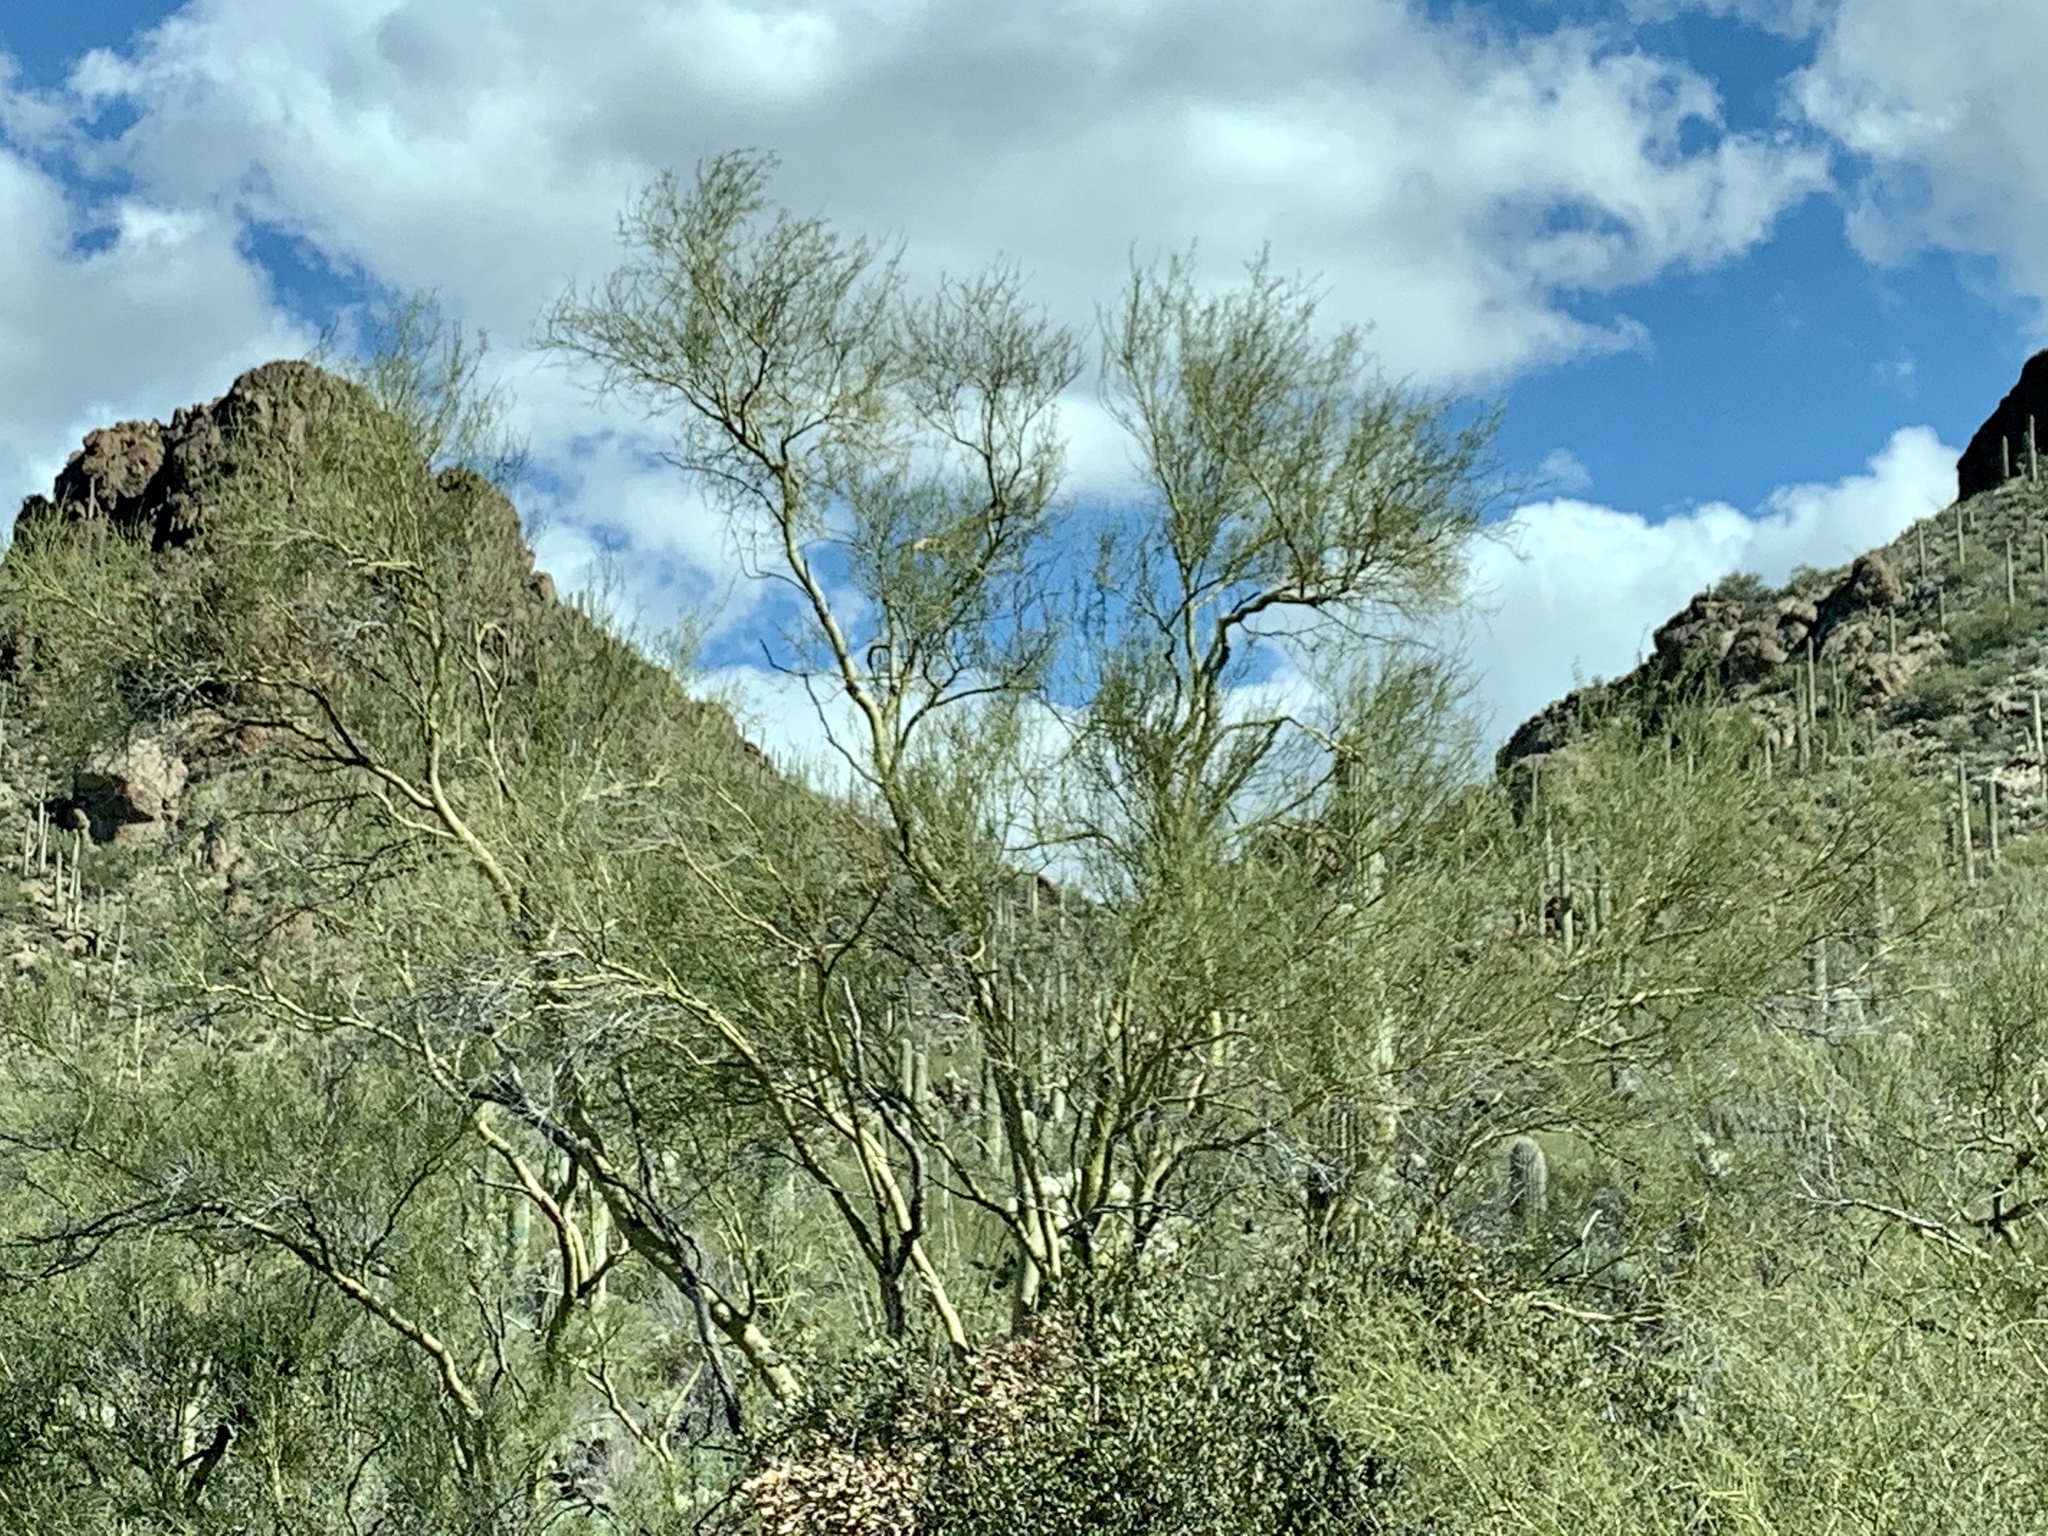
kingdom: Plantae
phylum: Tracheophyta
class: Magnoliopsida
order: Fabales
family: Fabaceae
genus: Parkinsonia
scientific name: Parkinsonia microphylla
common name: Yellow paloverde
